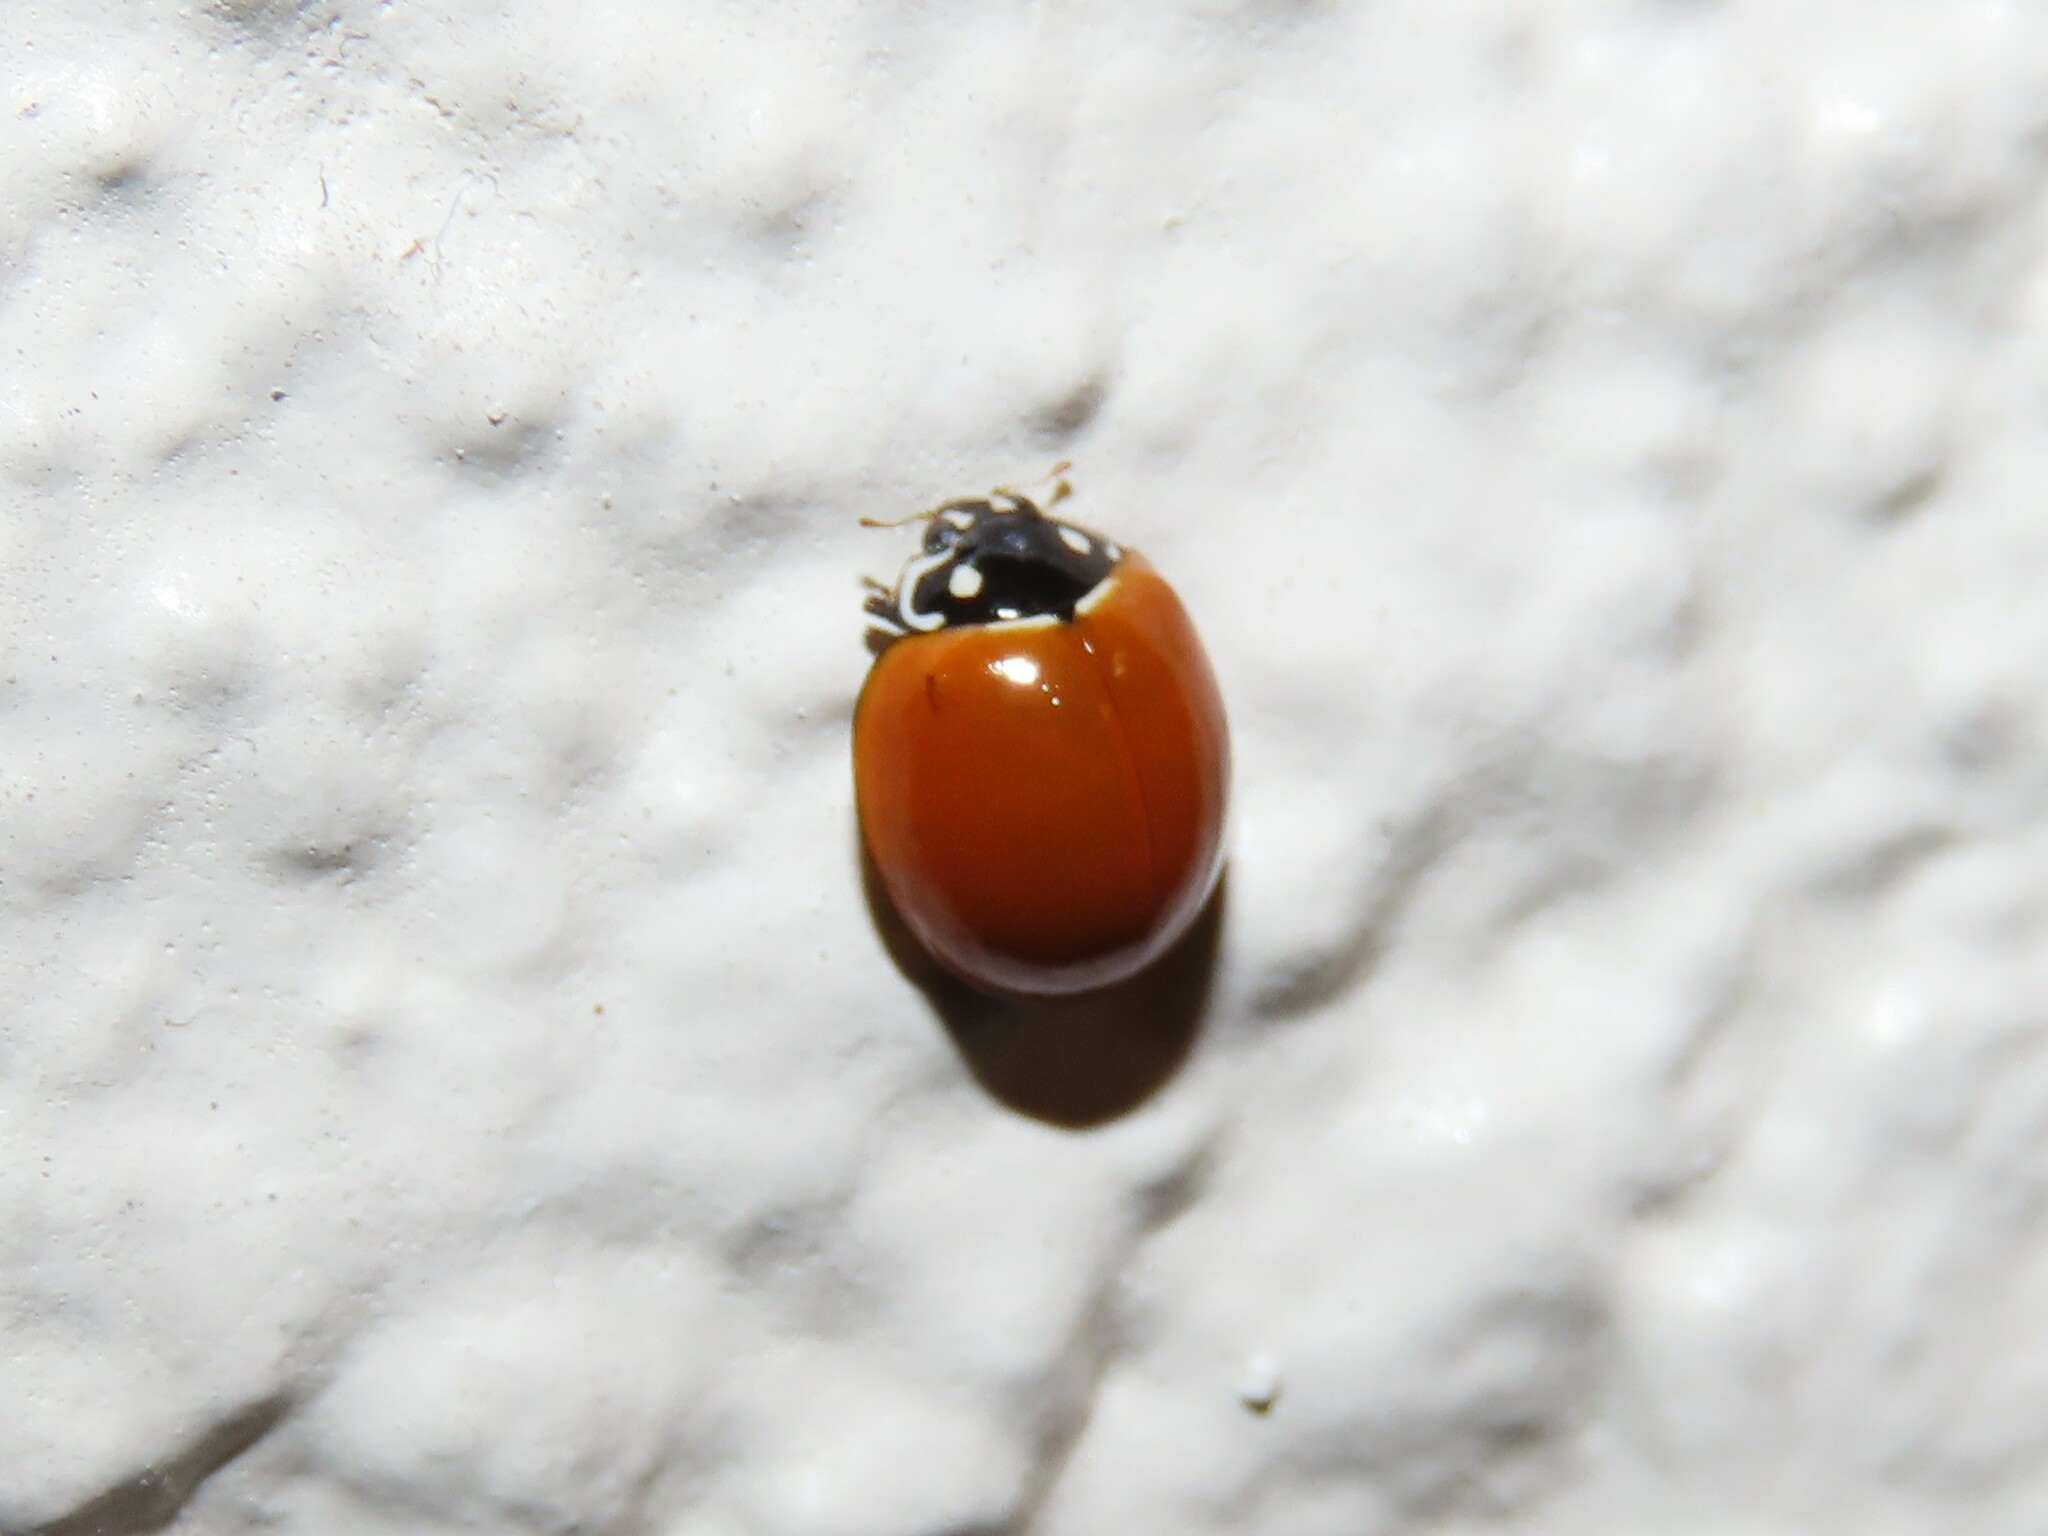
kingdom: Animalia
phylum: Arthropoda
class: Insecta
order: Coleoptera
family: Coccinellidae
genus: Cycloneda
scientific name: Cycloneda sanguinea
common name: Ladybird beetle
